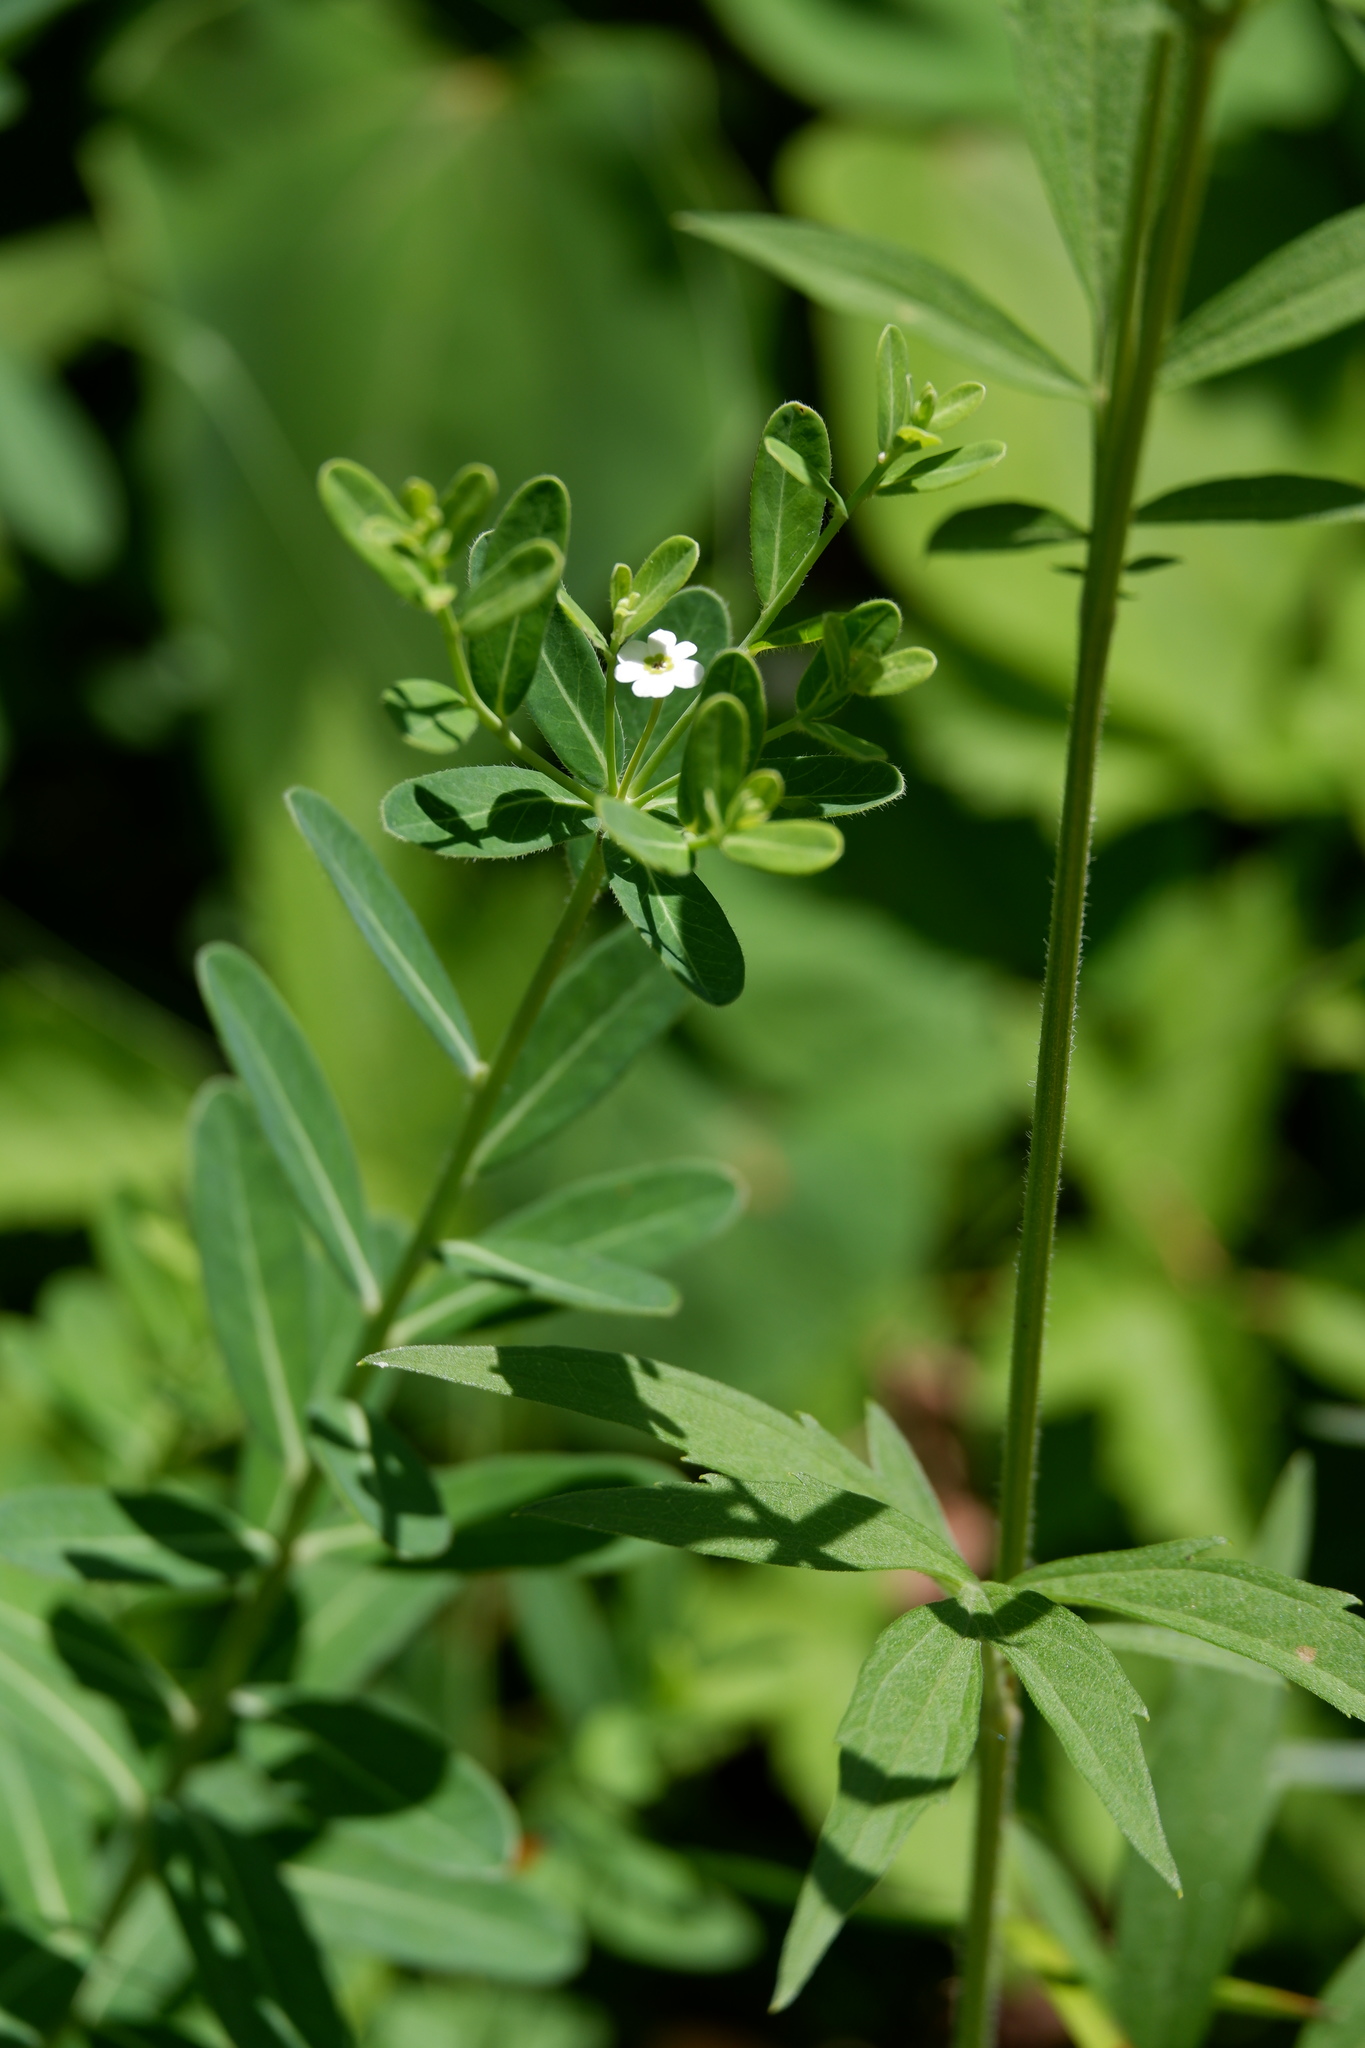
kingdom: Plantae
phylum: Tracheophyta
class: Magnoliopsida
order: Malpighiales
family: Euphorbiaceae
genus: Euphorbia
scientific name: Euphorbia corollata
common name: Flowering spurge
